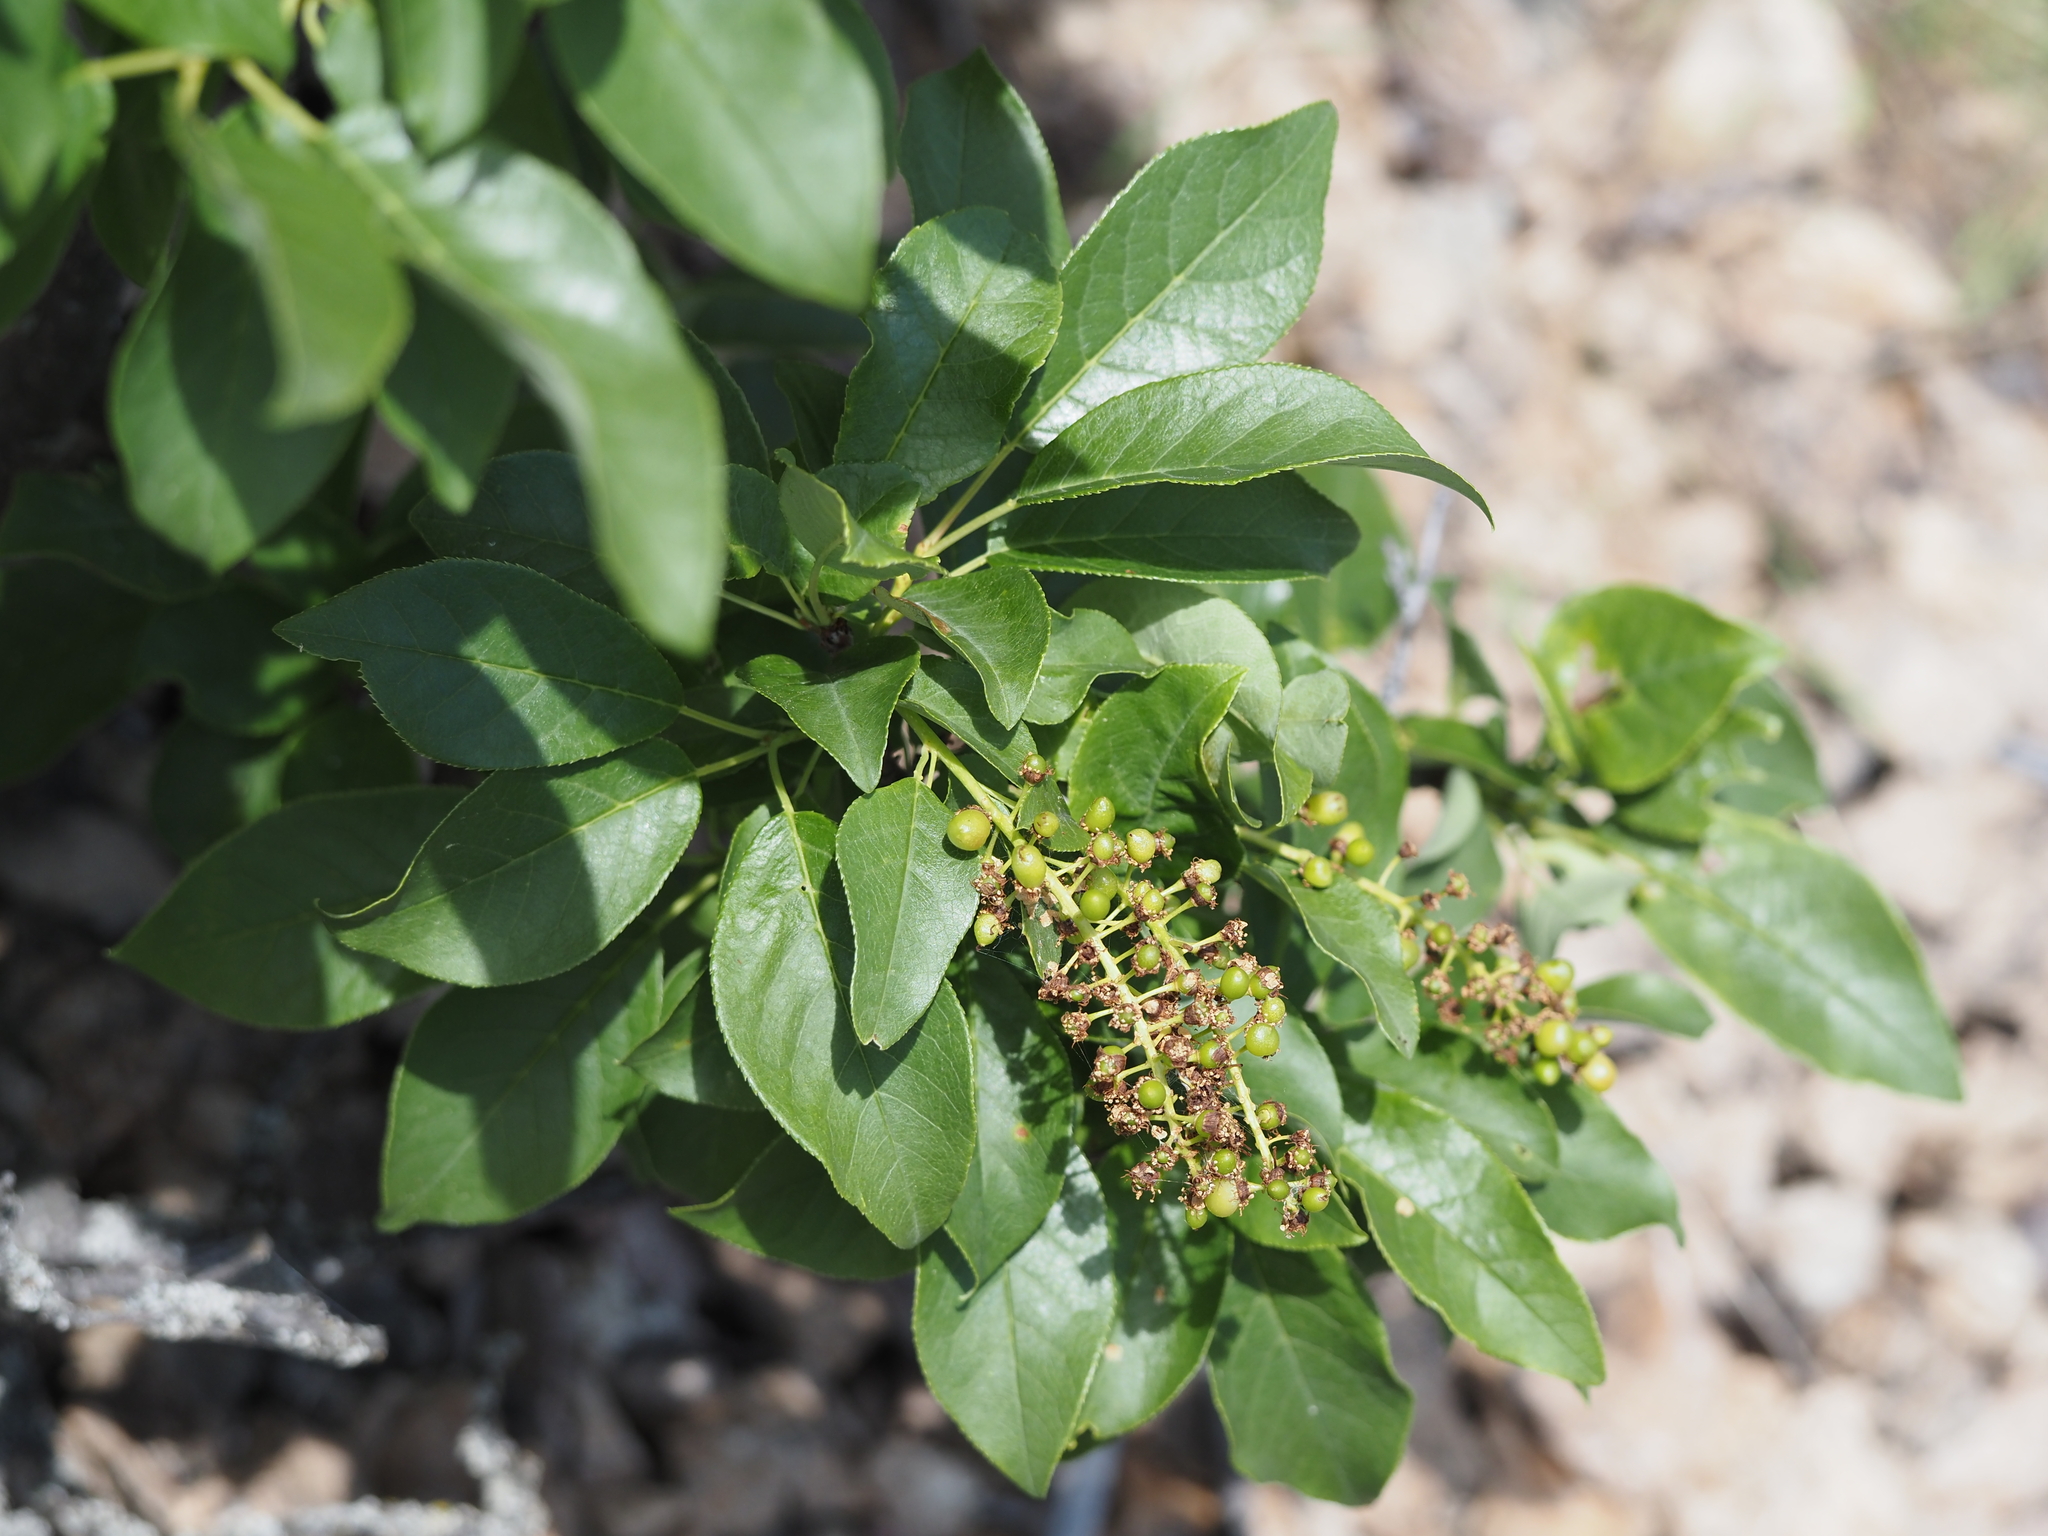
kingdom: Plantae
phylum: Tracheophyta
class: Magnoliopsida
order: Rosales
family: Rosaceae
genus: Prunus
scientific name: Prunus virginiana
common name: Chokecherry
